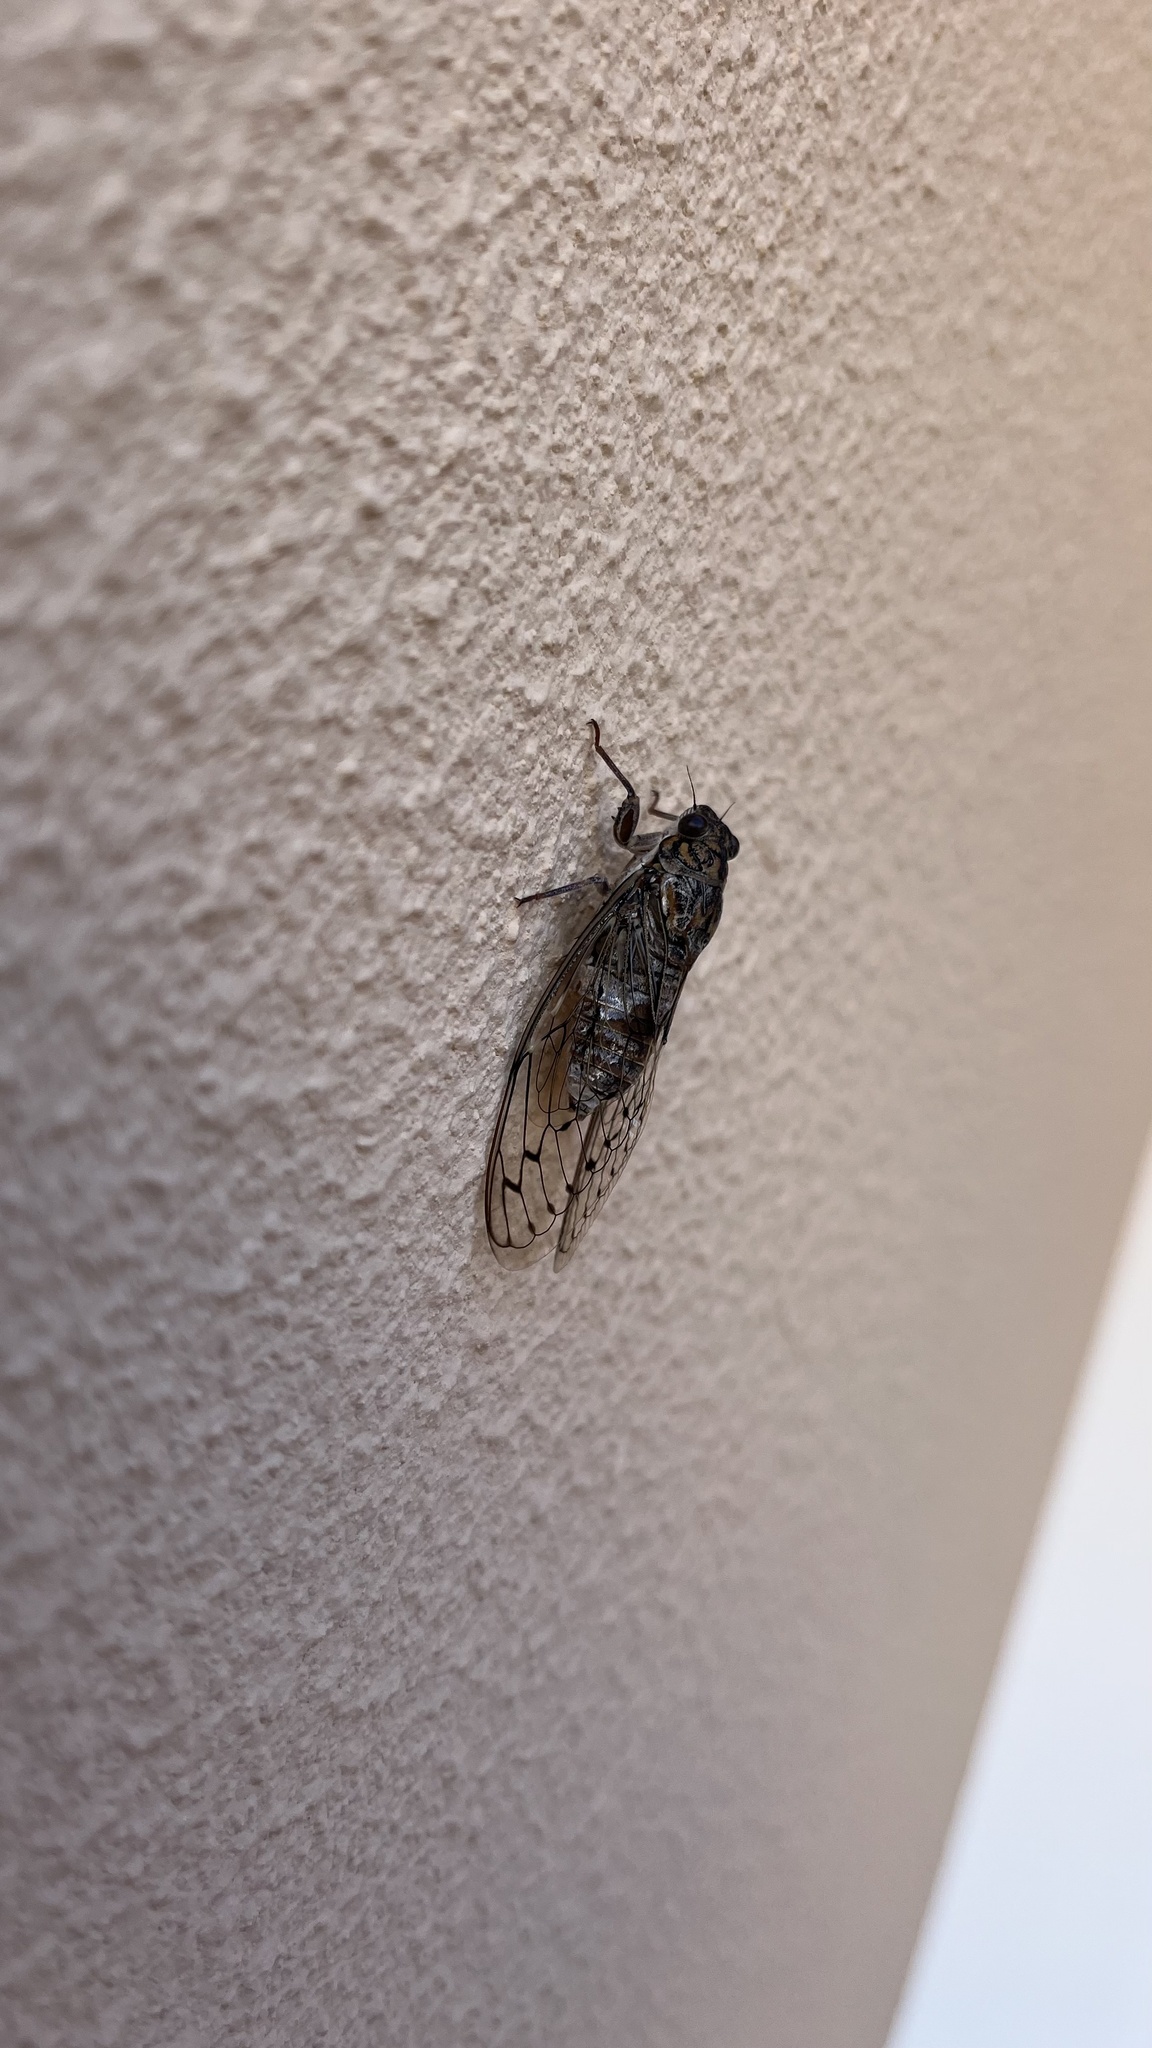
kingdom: Animalia
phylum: Arthropoda
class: Insecta
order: Hemiptera
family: Cicadidae
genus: Cicada
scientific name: Cicada barbara
